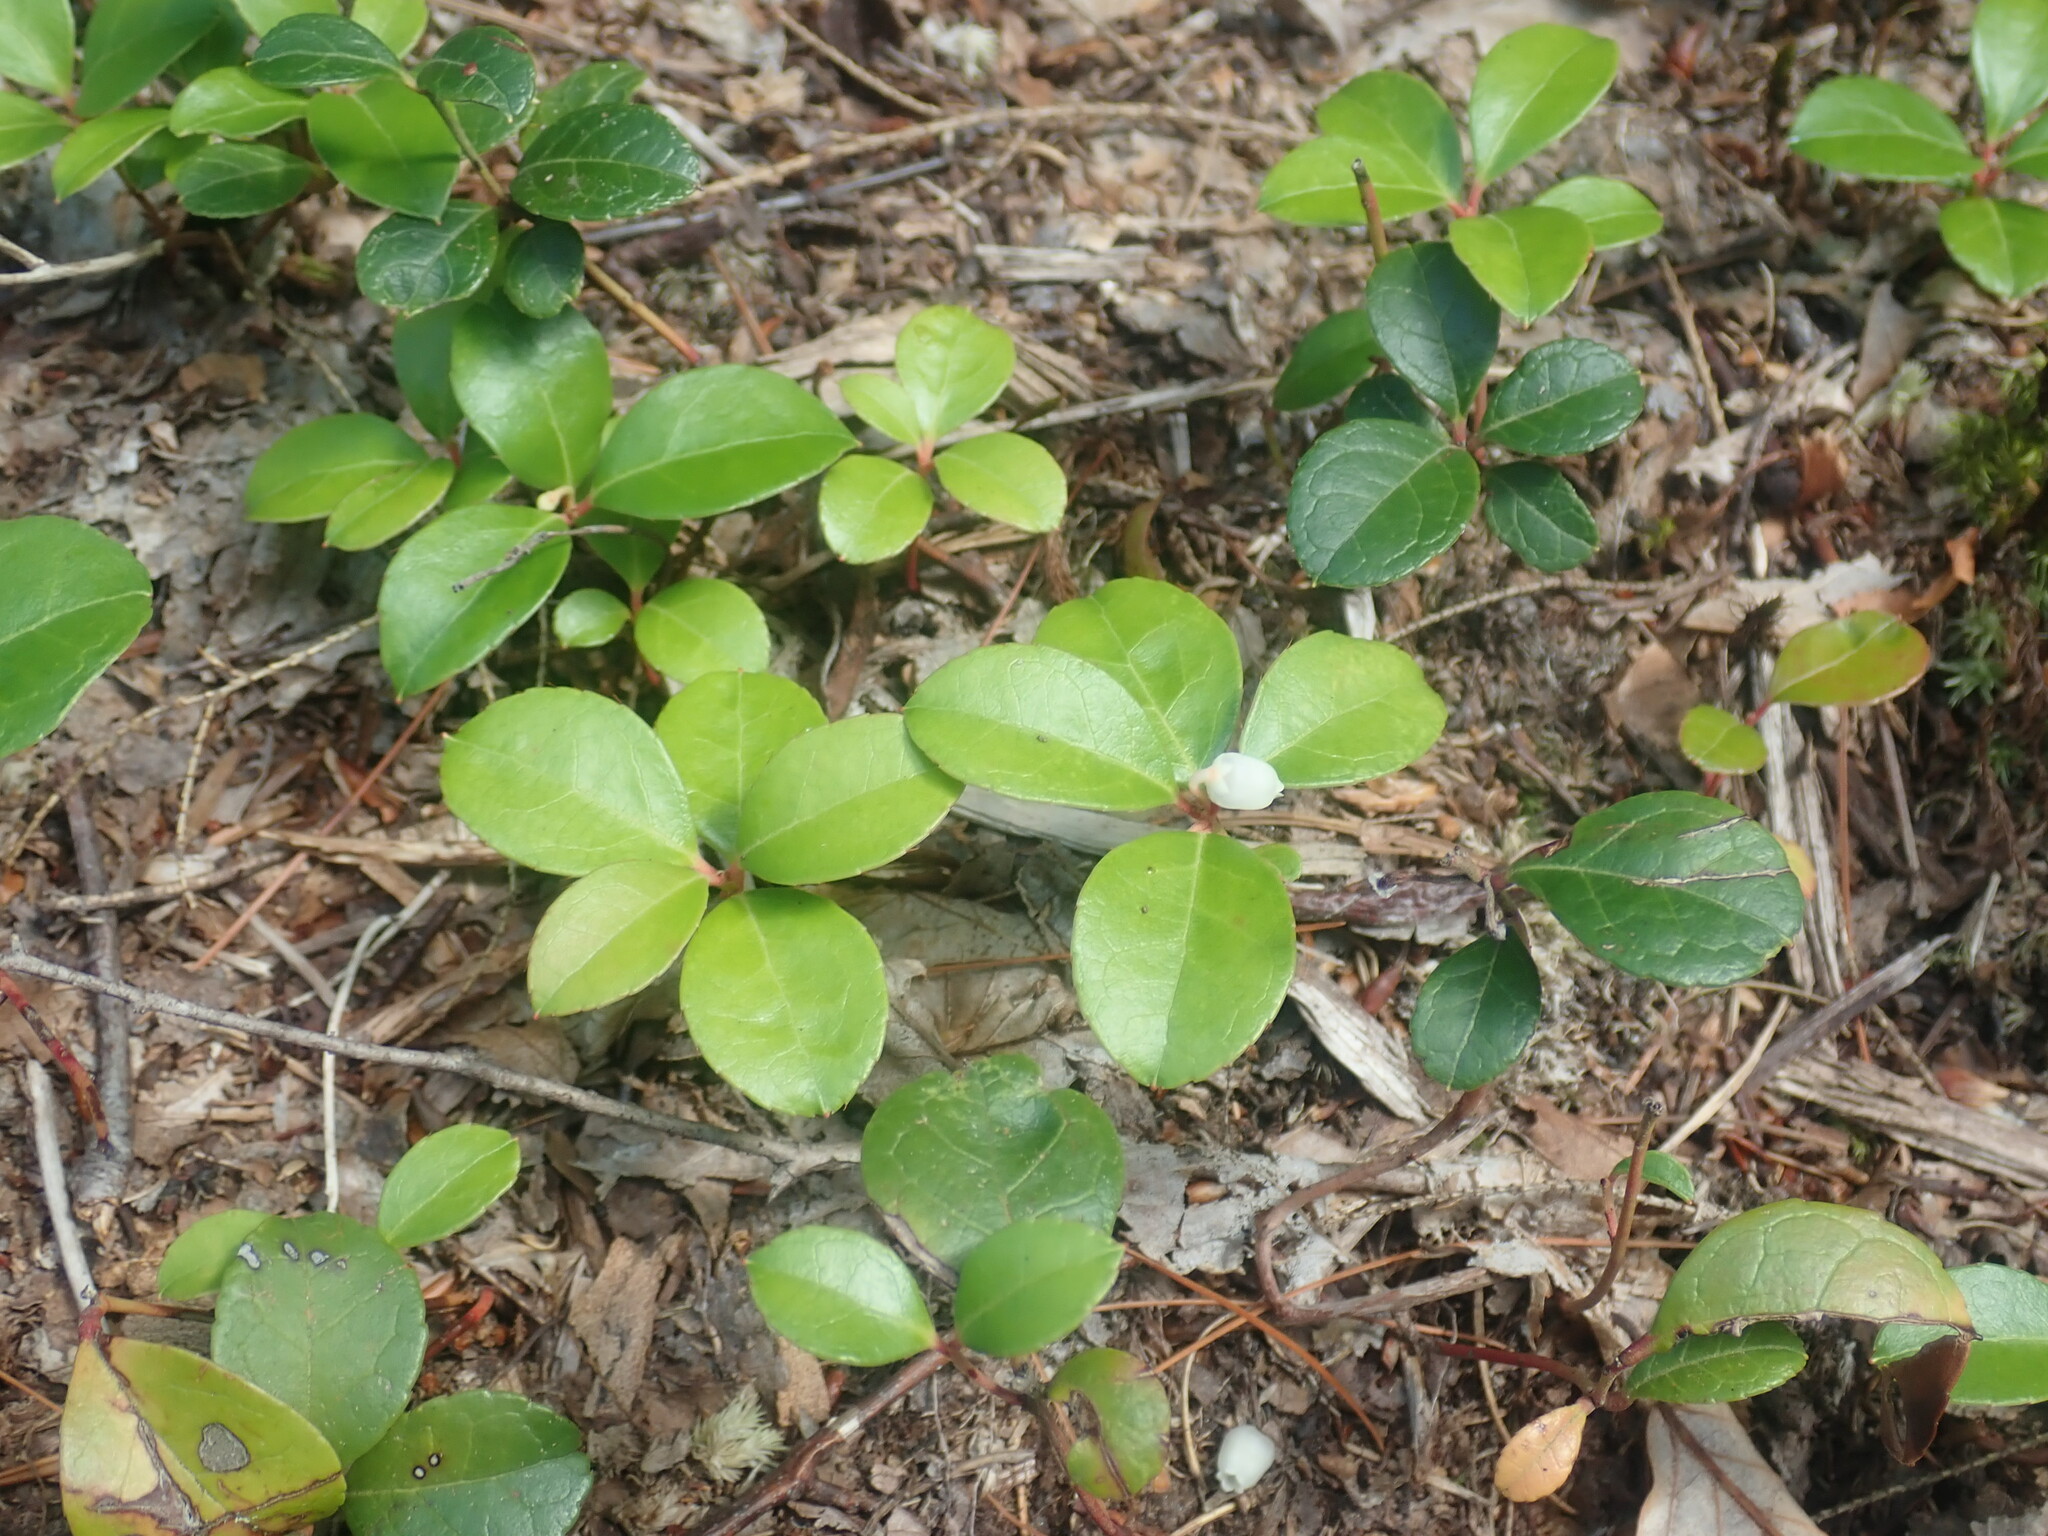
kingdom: Plantae
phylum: Tracheophyta
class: Magnoliopsida
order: Ericales
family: Ericaceae
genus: Gaultheria
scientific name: Gaultheria procumbens
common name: Checkerberry
